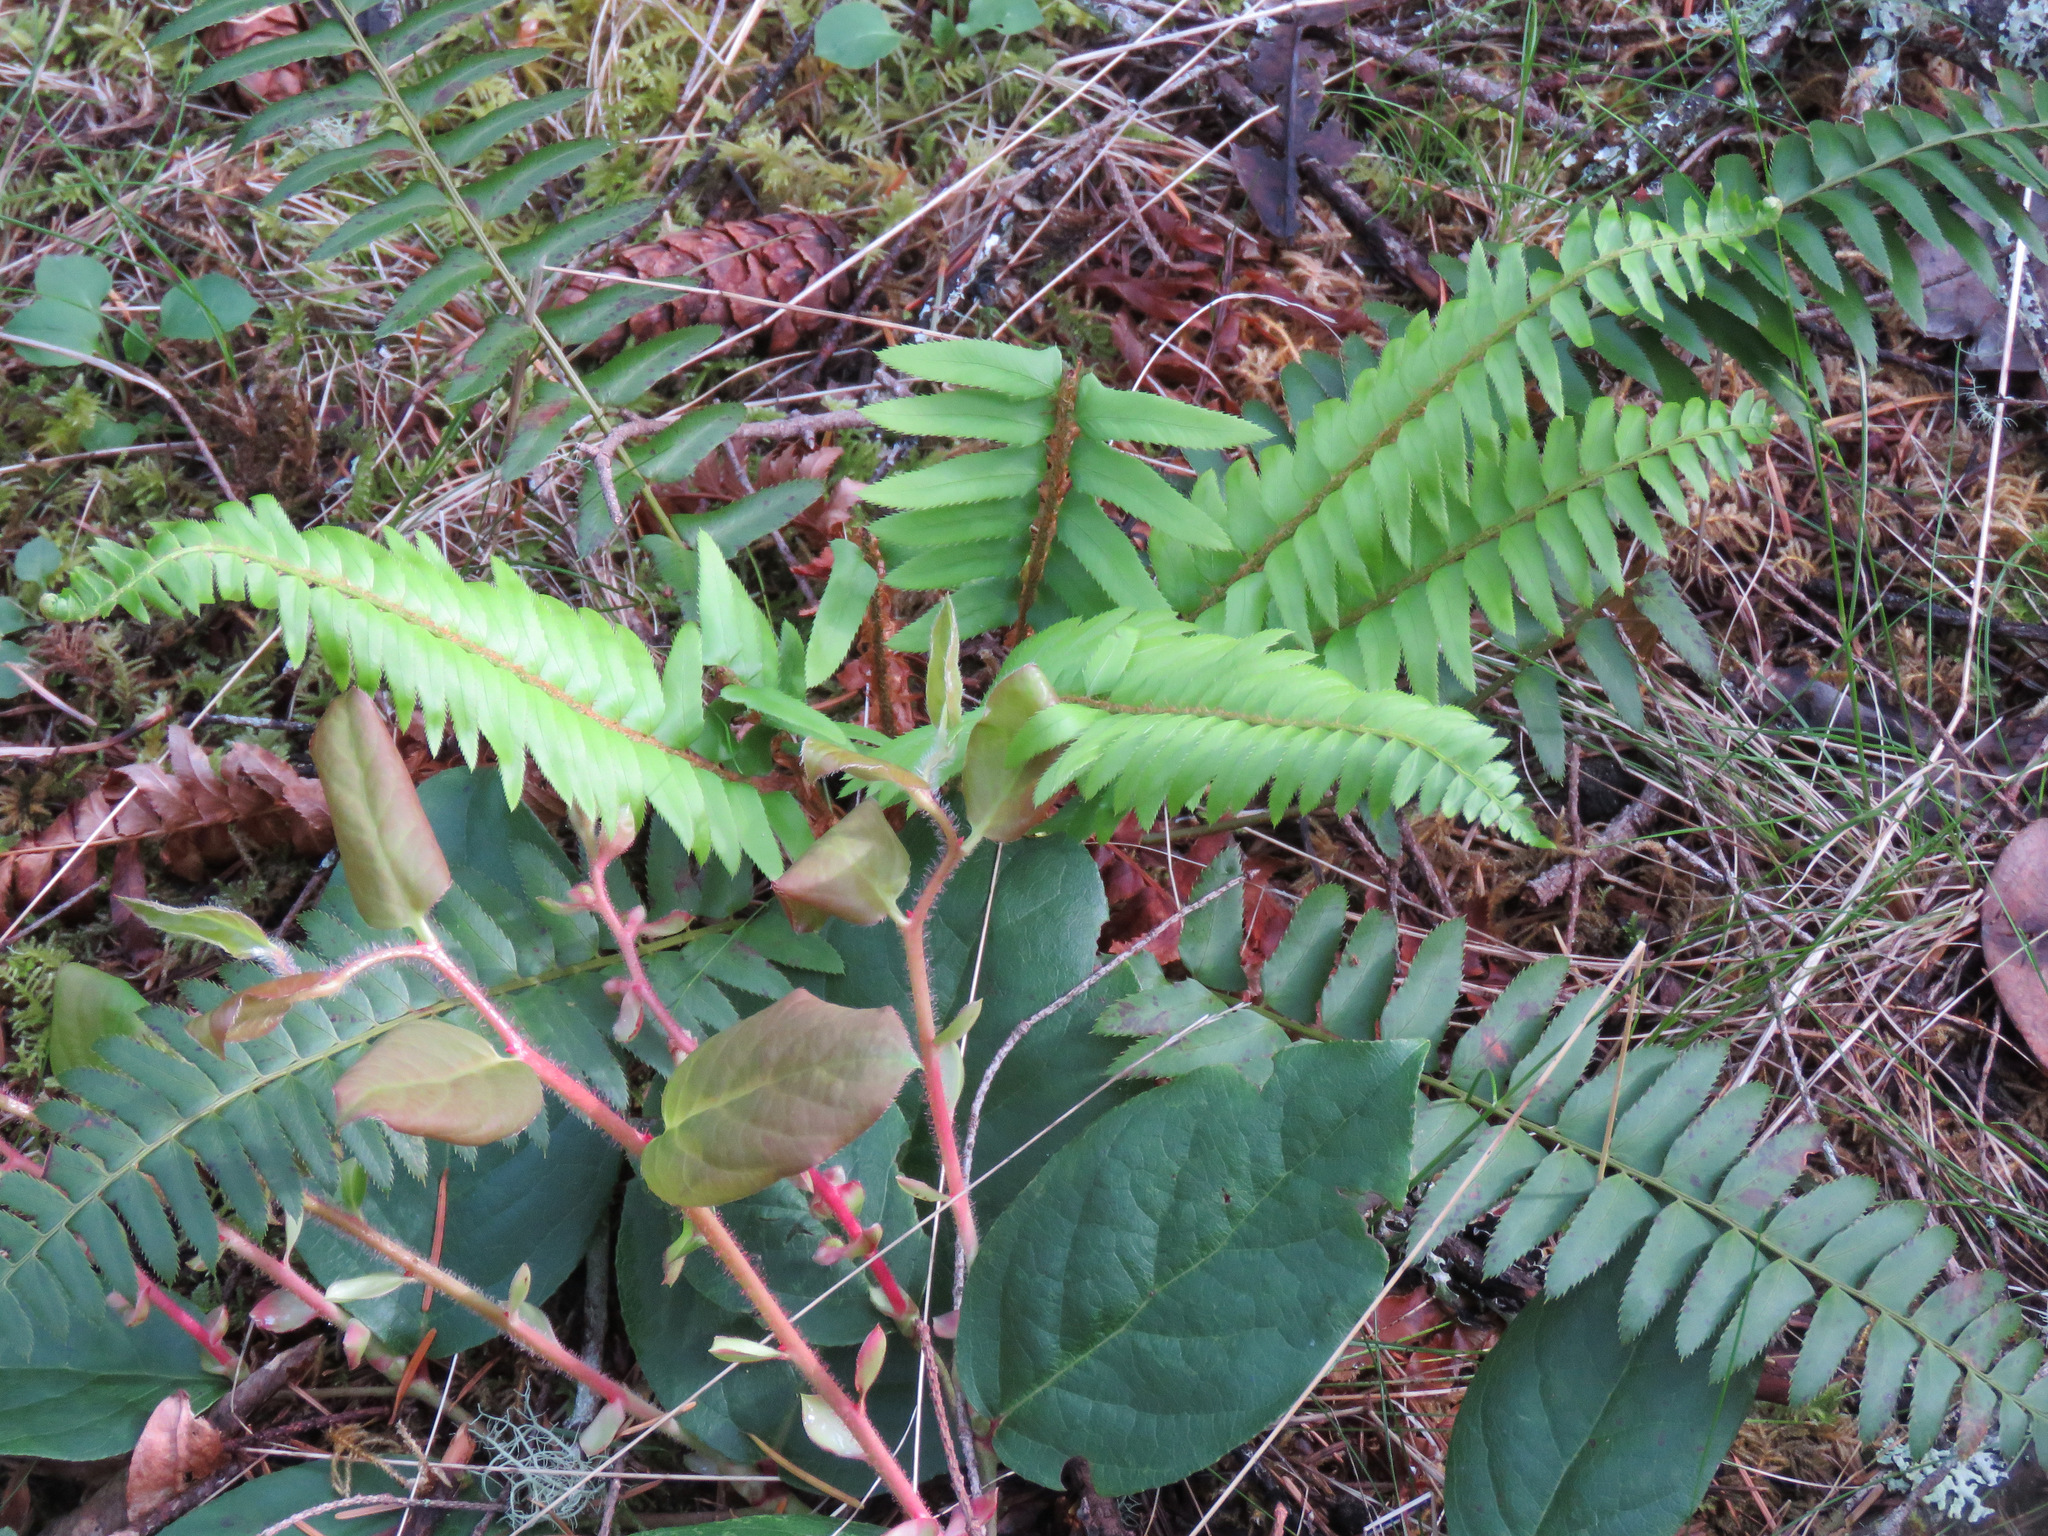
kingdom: Plantae
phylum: Tracheophyta
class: Polypodiopsida
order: Polypodiales
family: Dryopteridaceae
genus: Polystichum
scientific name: Polystichum munitum
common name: Western sword-fern
